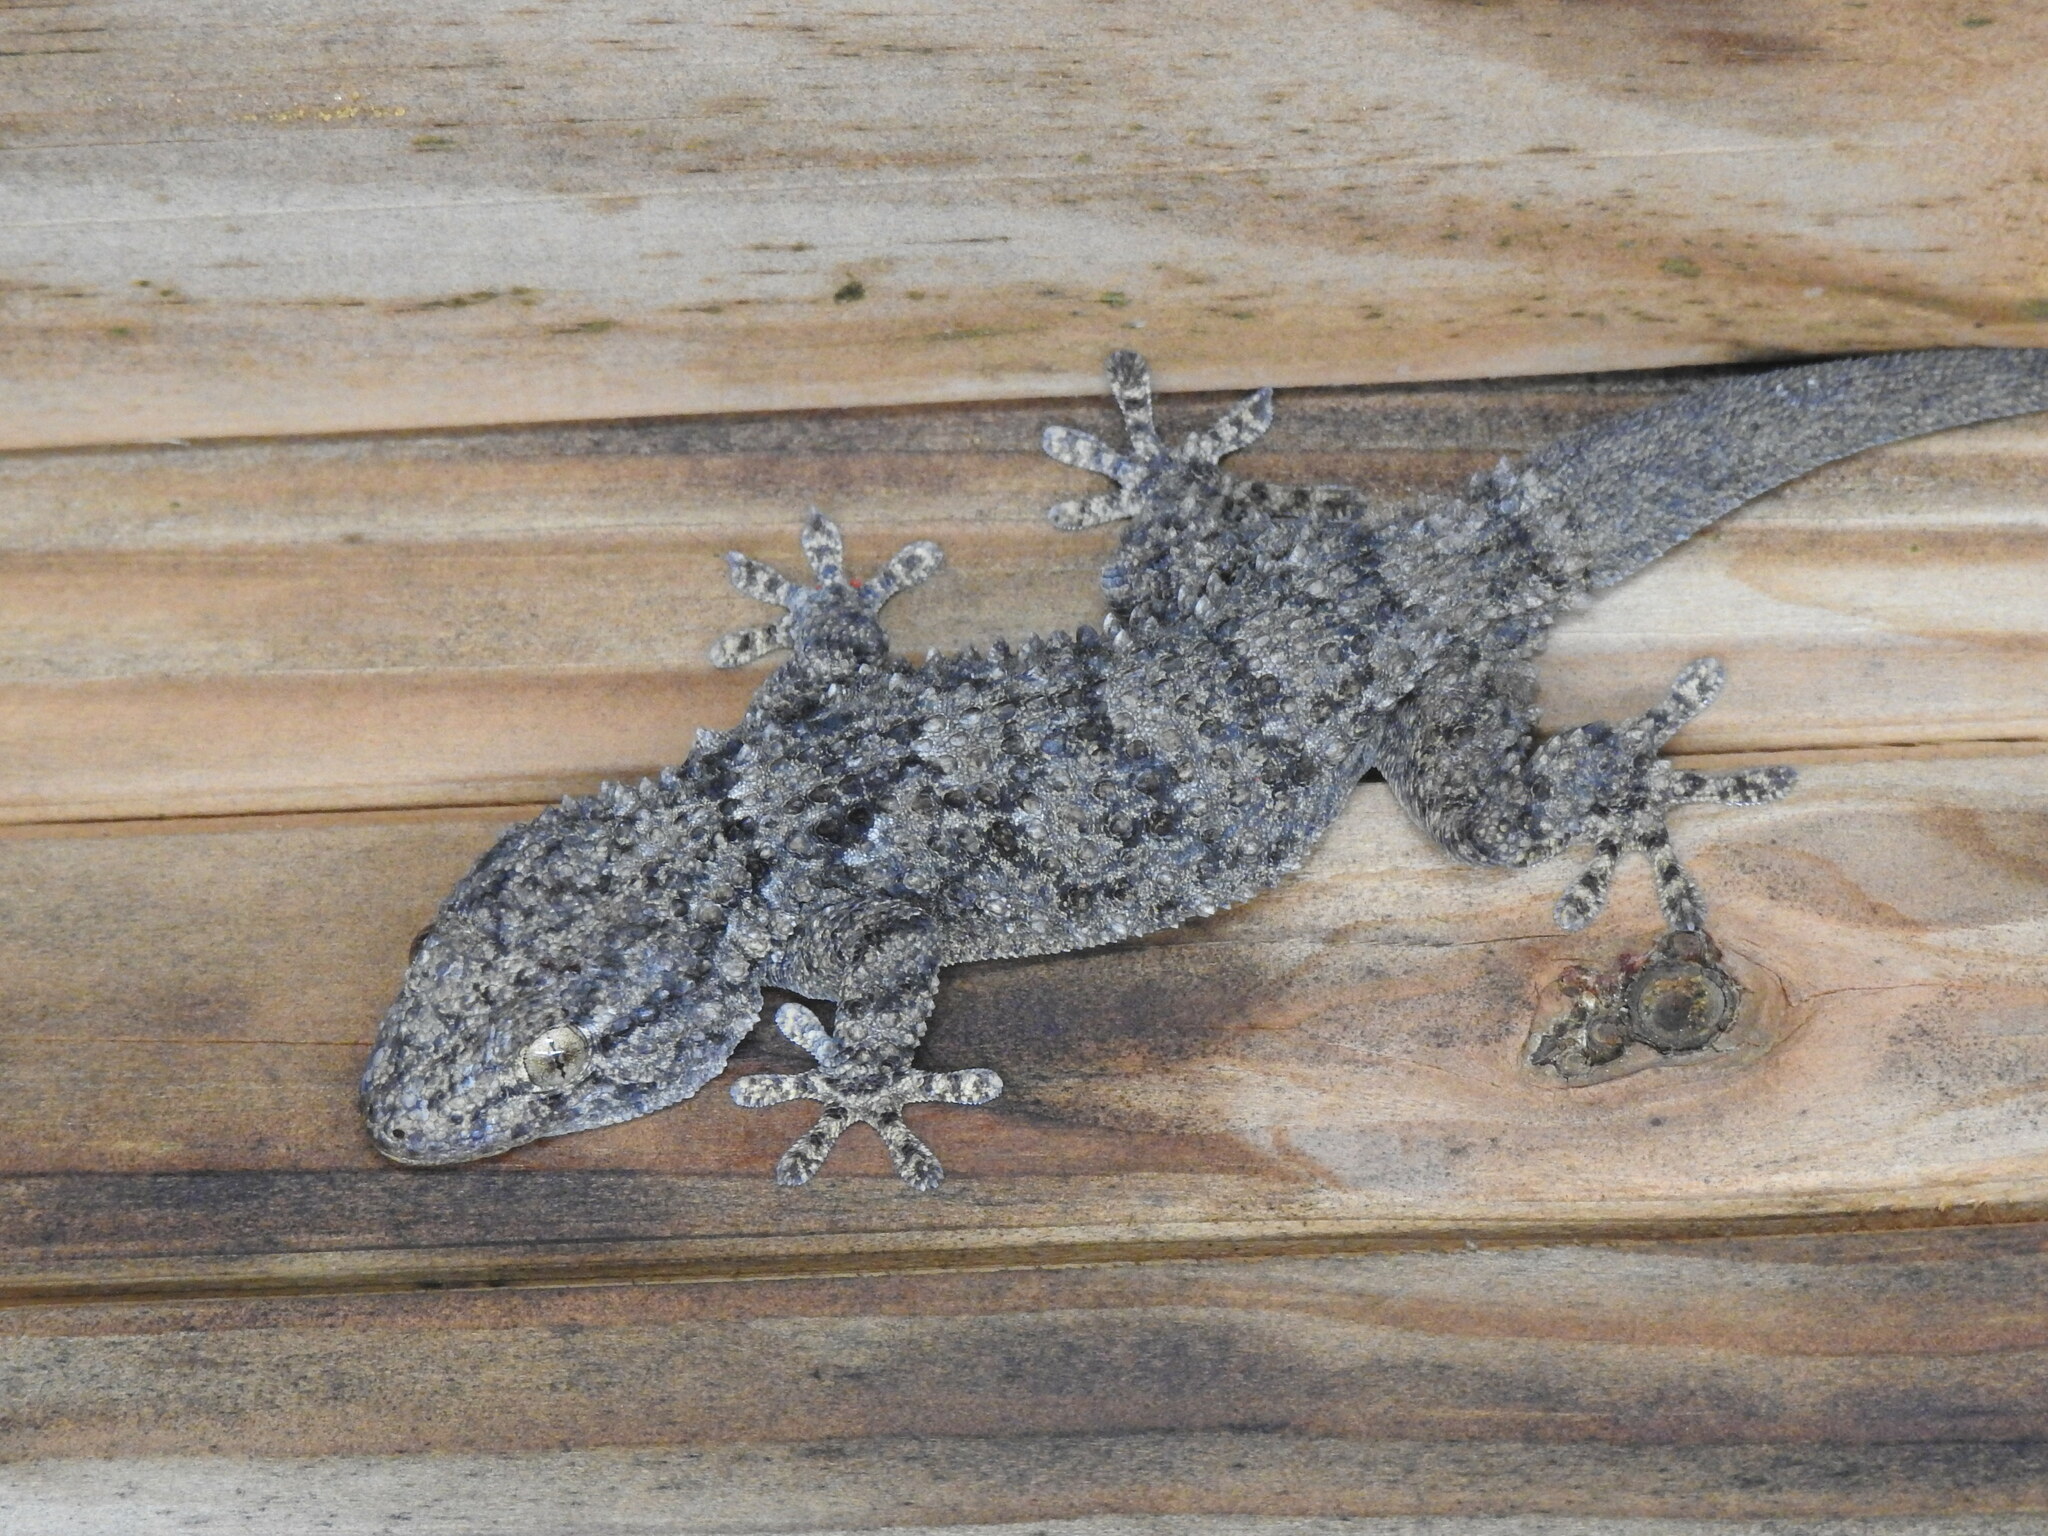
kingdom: Animalia
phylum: Chordata
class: Squamata
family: Phyllodactylidae
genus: Tarentola
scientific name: Tarentola mauritanica
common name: Moorish gecko
